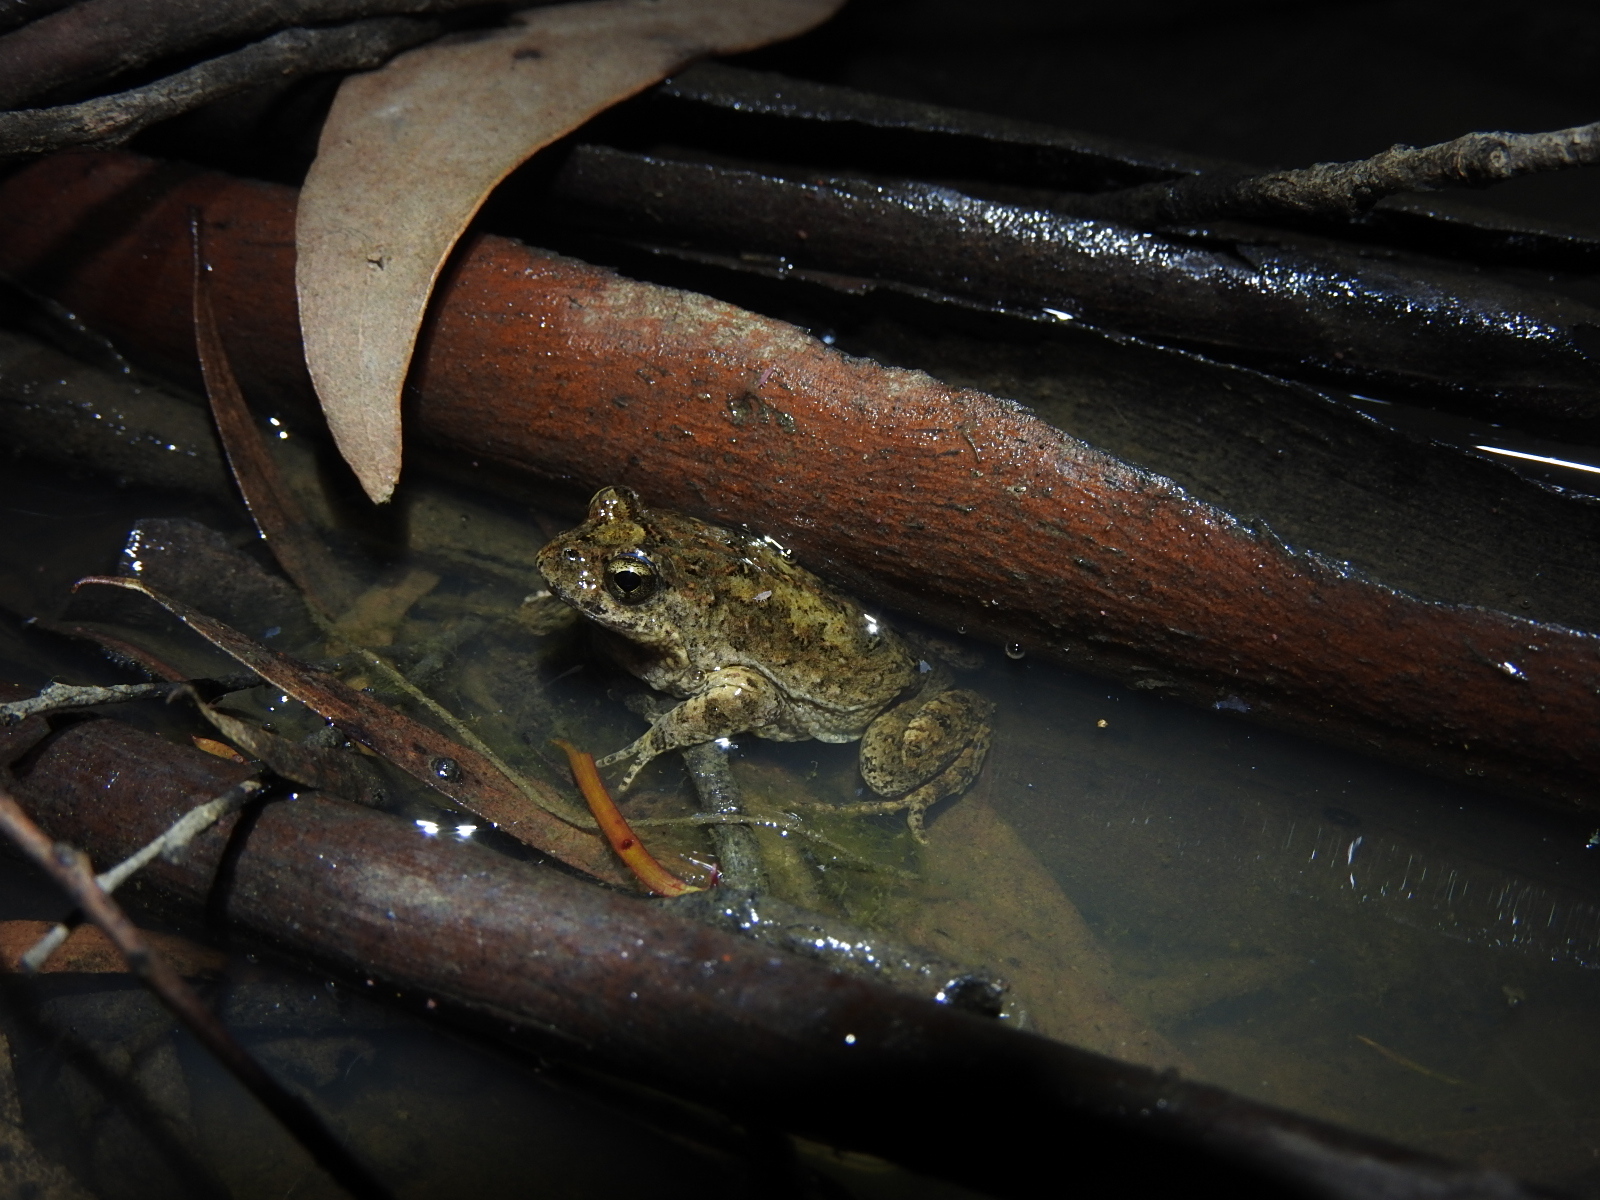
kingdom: Animalia
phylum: Chordata
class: Amphibia
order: Anura
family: Myobatrachidae
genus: Crinia
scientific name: Crinia signifera
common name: Brown froglet
